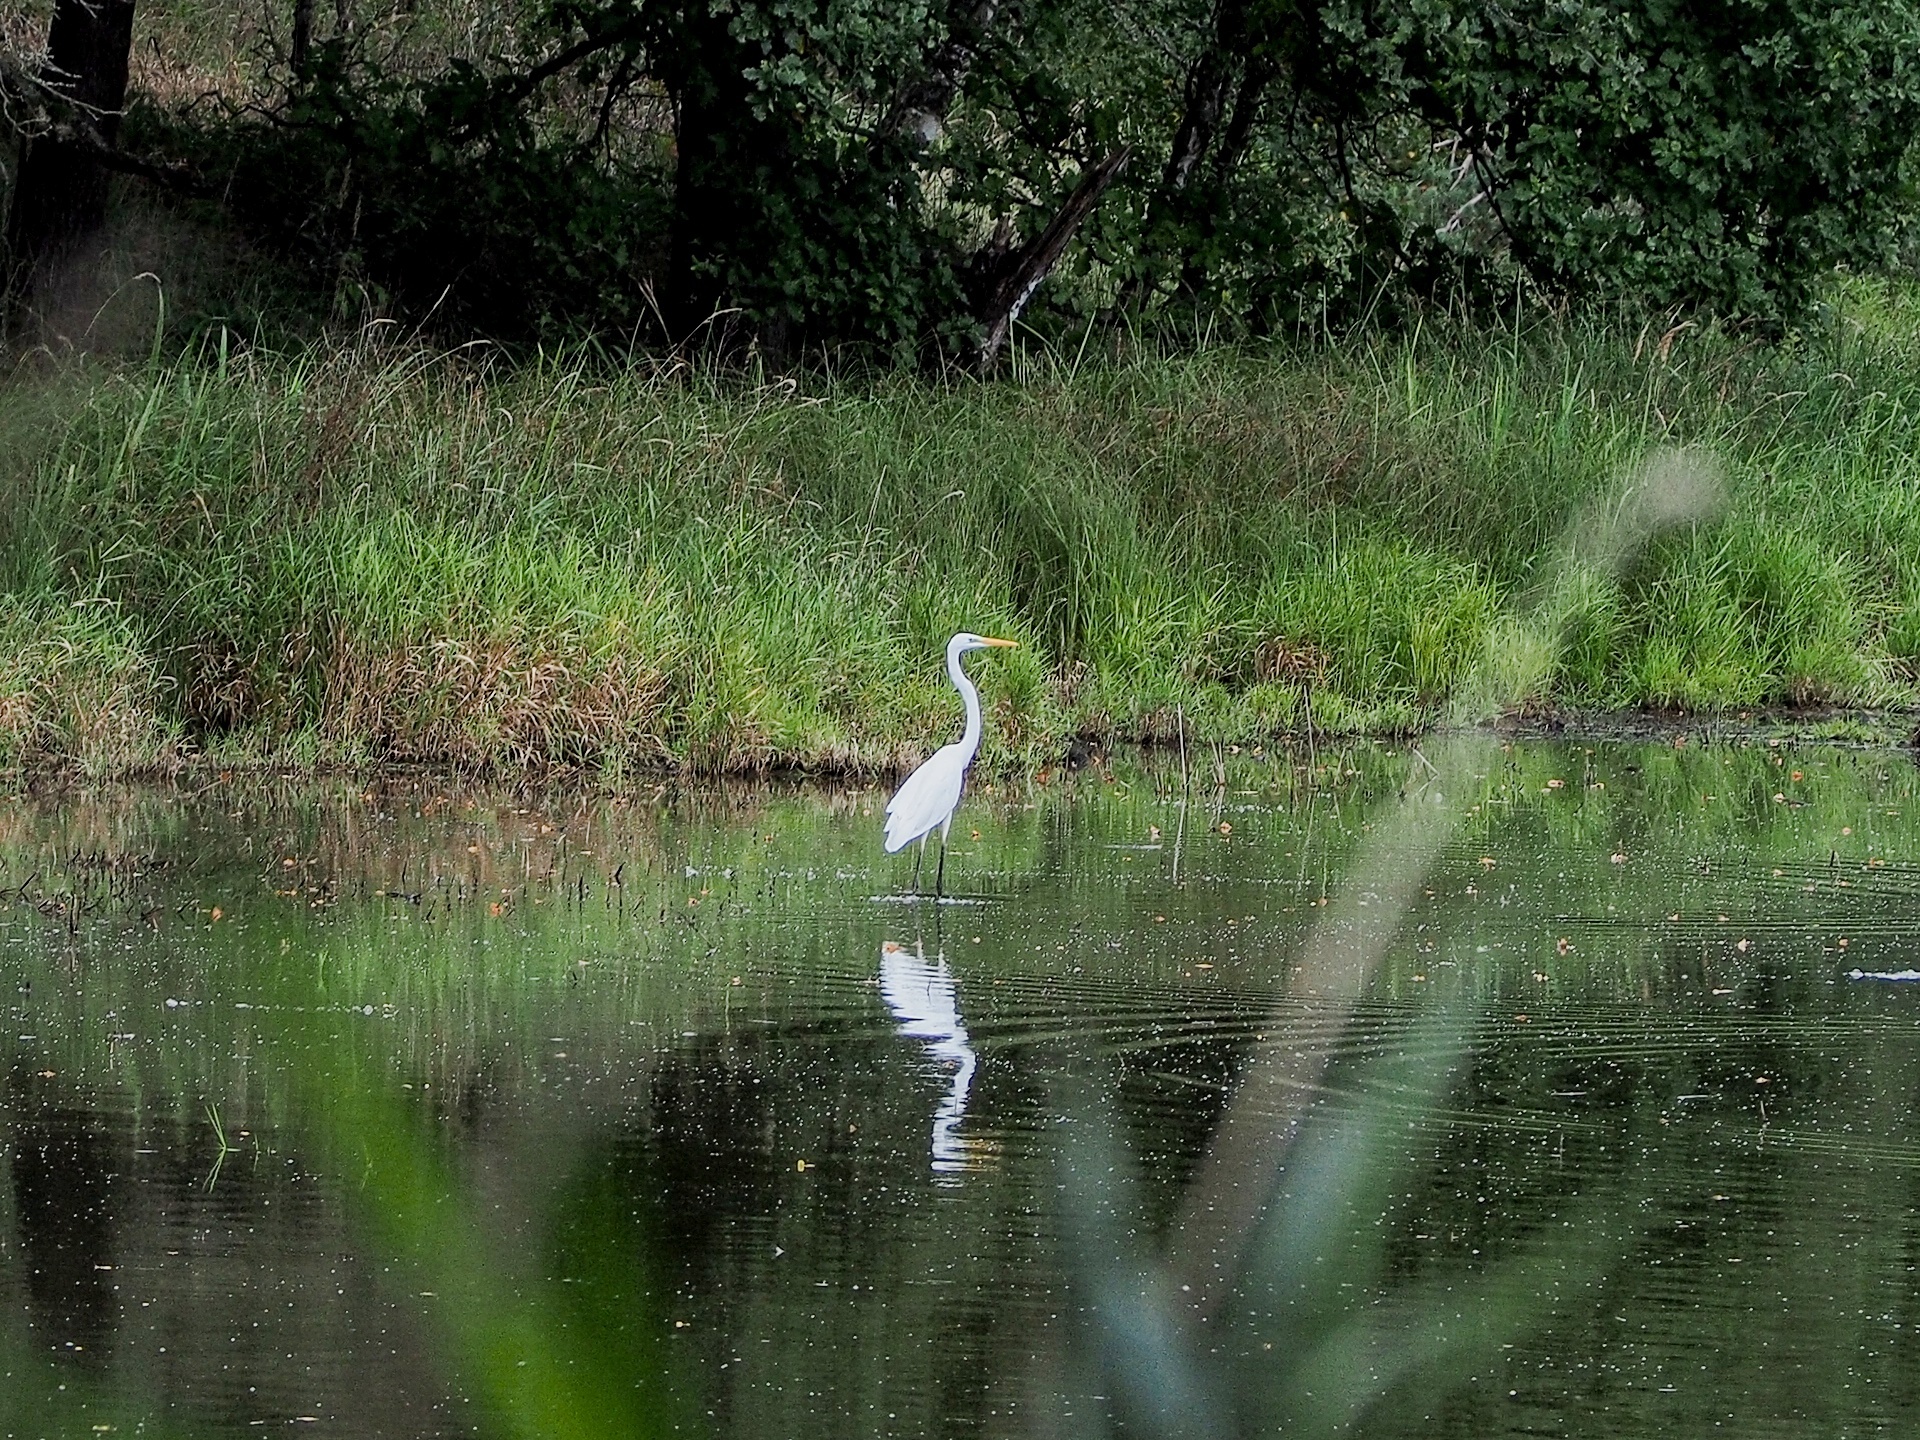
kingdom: Animalia
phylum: Chordata
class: Aves
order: Pelecaniformes
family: Ardeidae
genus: Ardea
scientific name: Ardea alba
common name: Great egret
